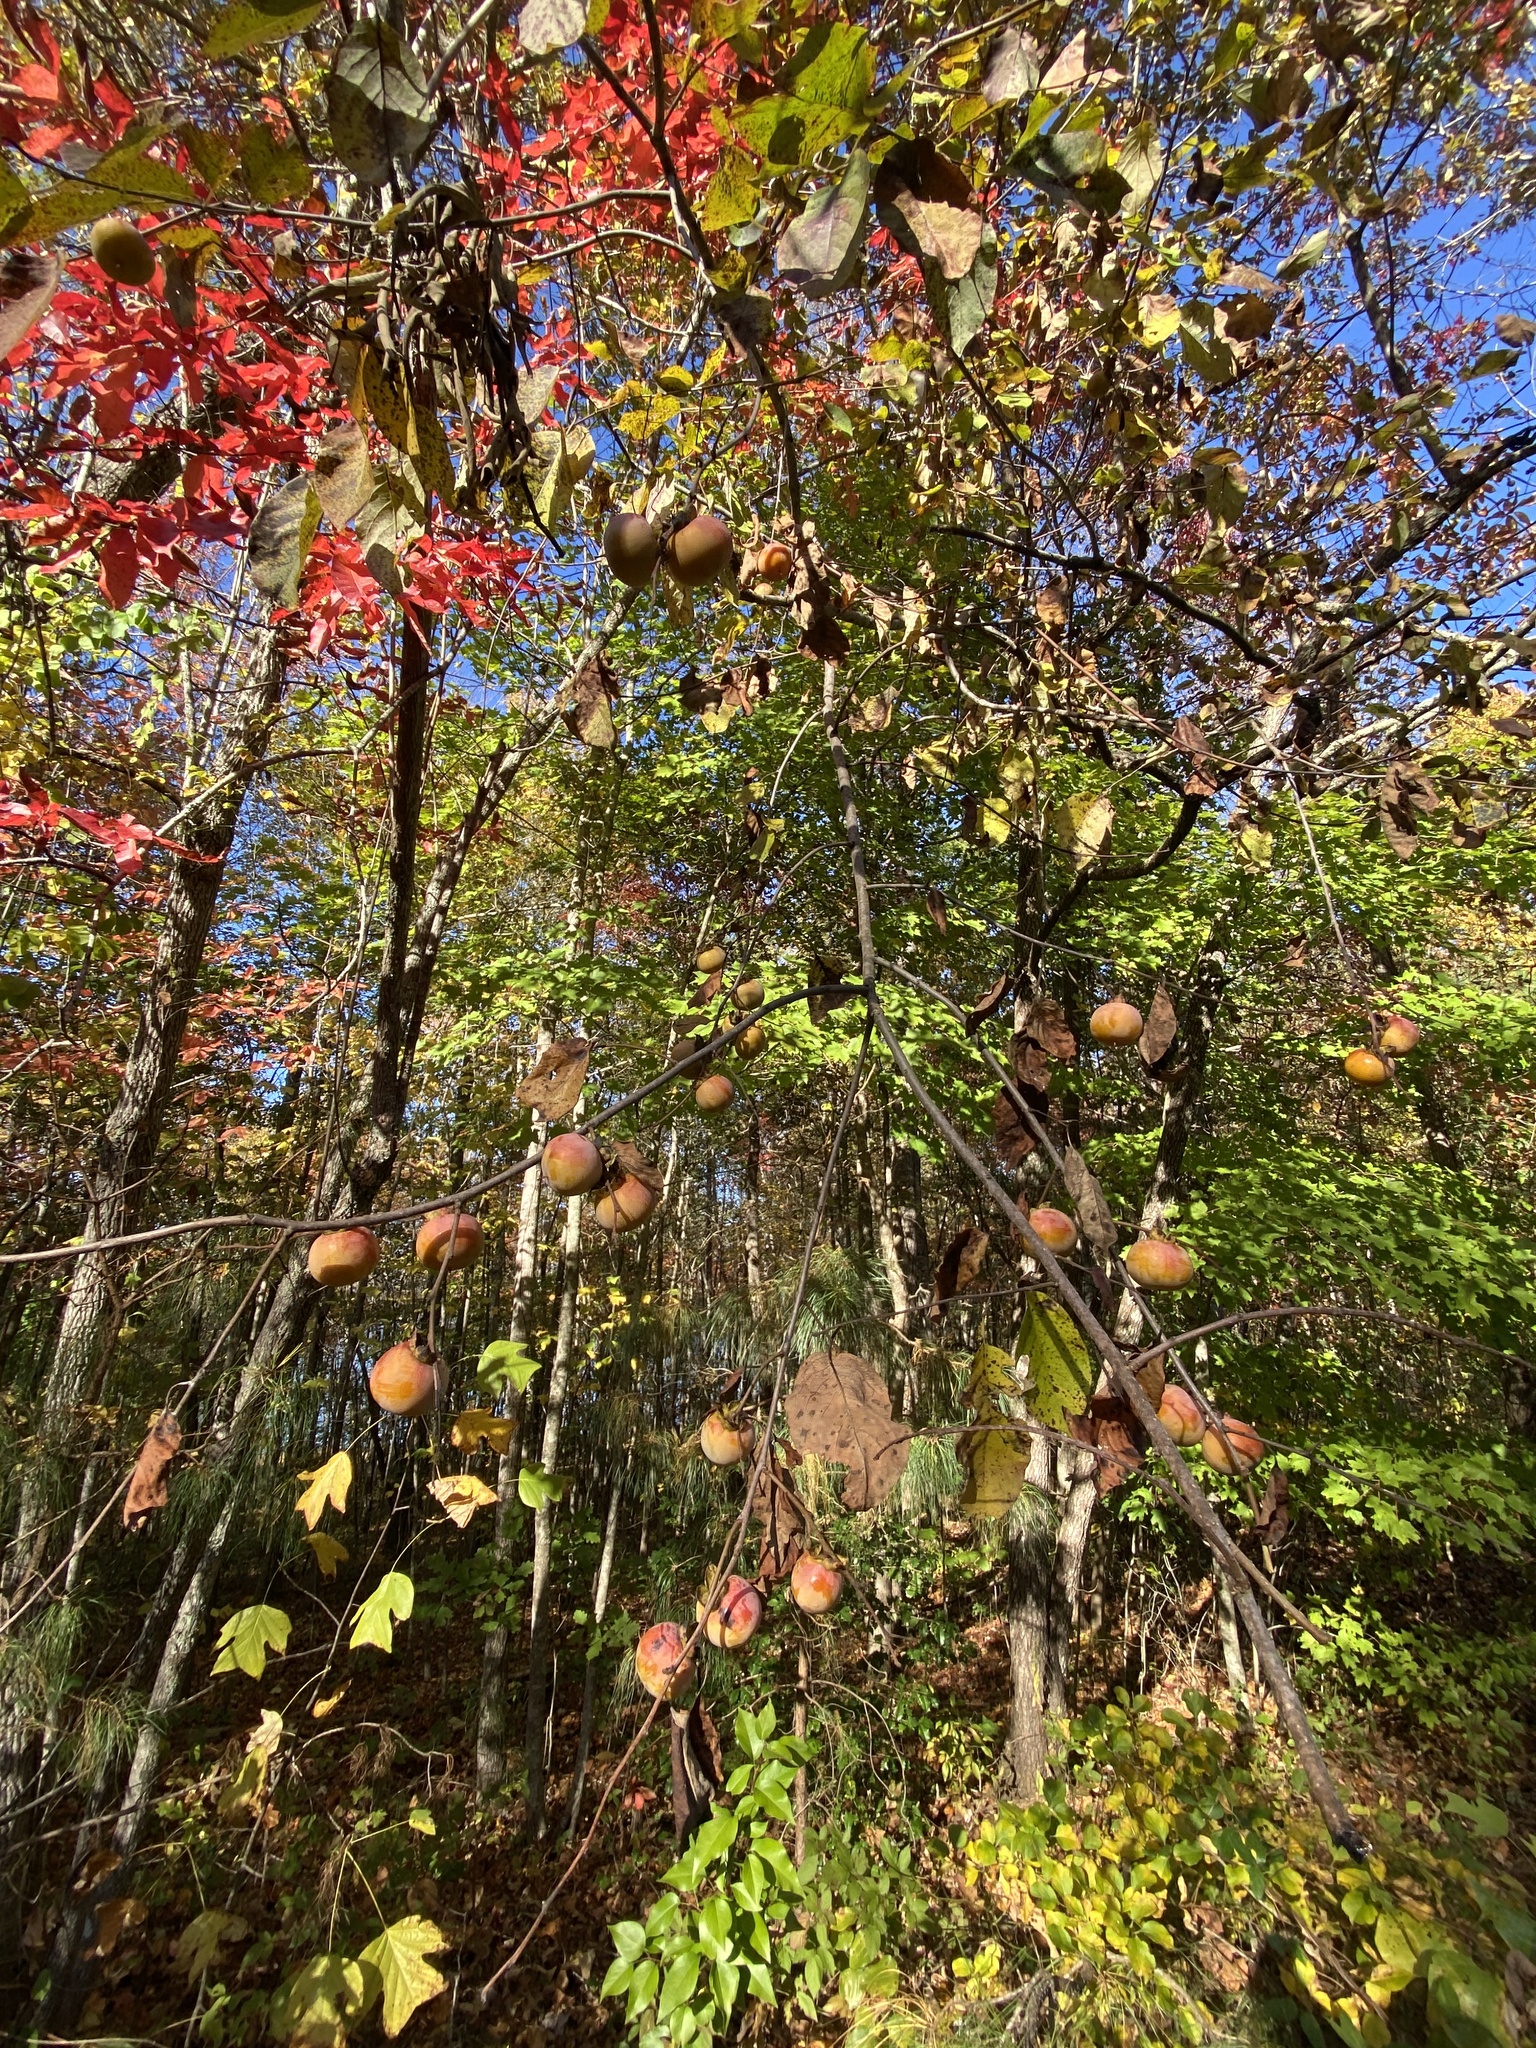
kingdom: Plantae
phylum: Tracheophyta
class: Magnoliopsida
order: Ericales
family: Ebenaceae
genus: Diospyros
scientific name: Diospyros virginiana
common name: Persimmon
